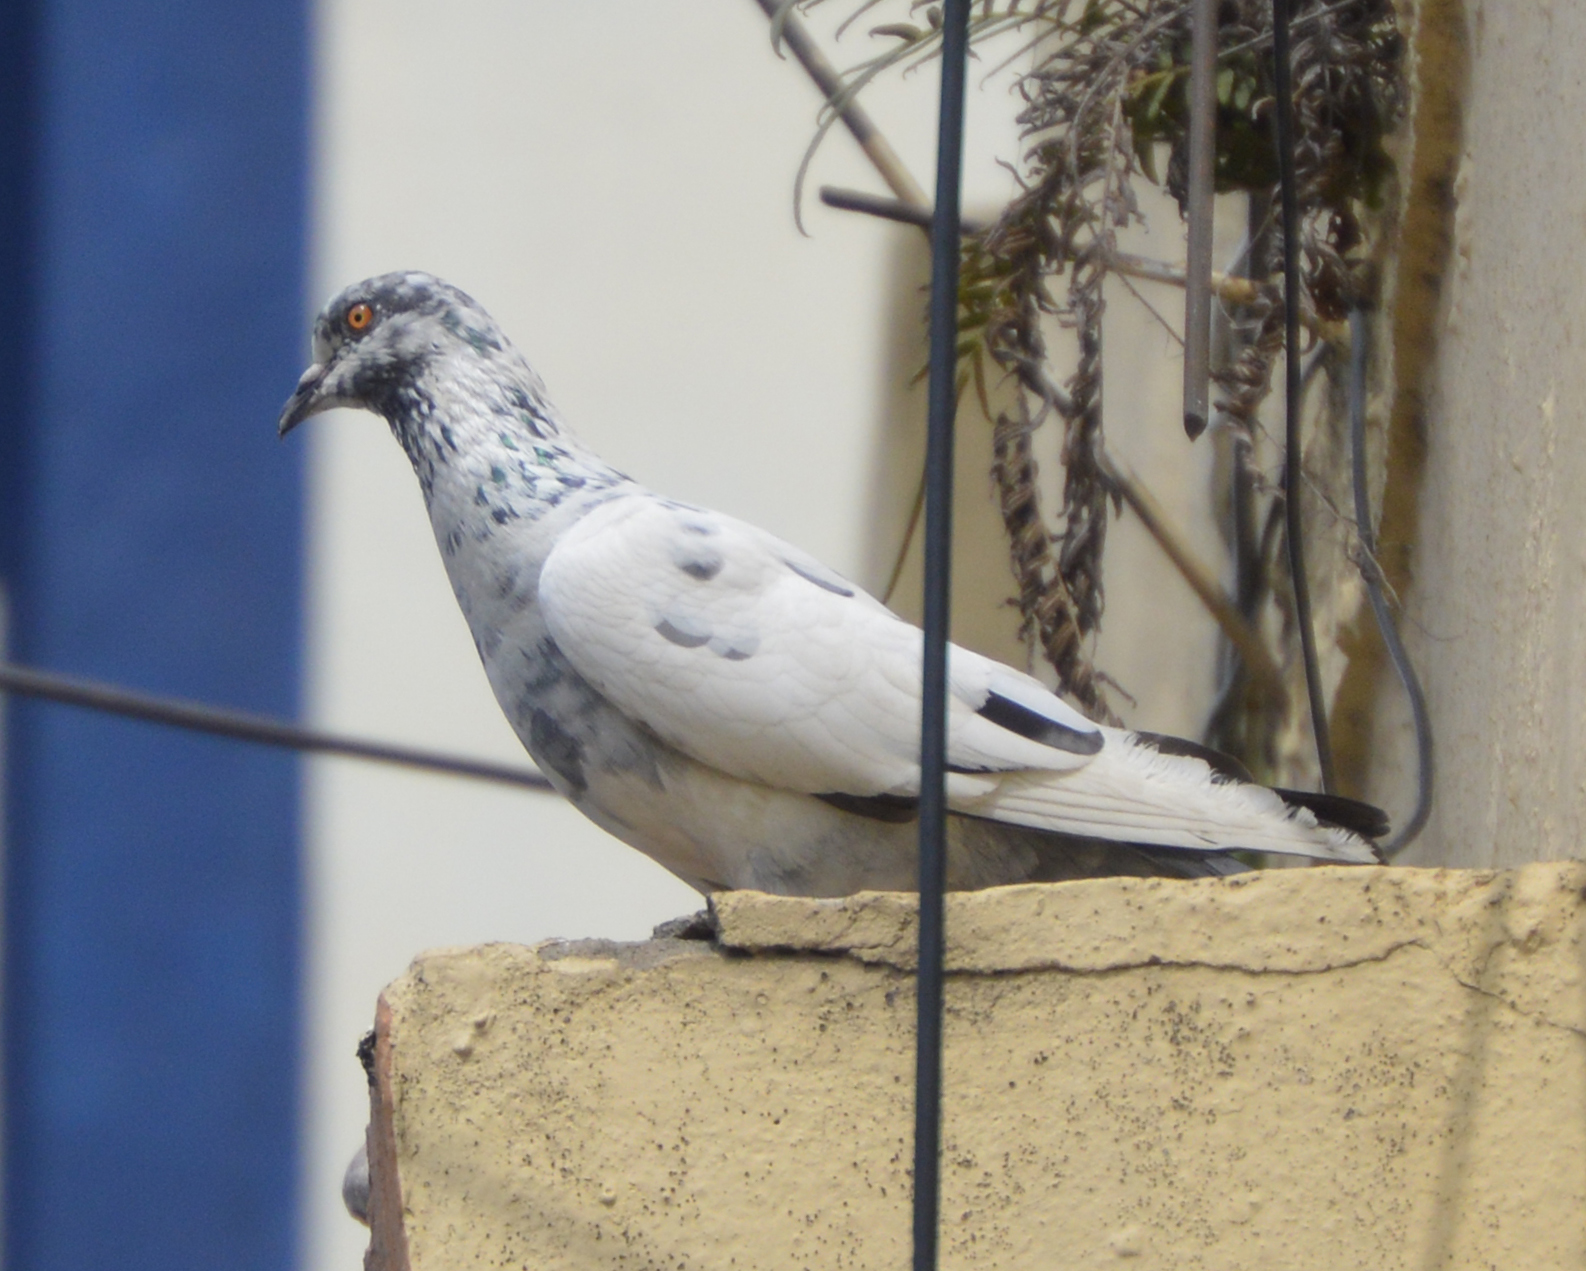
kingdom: Animalia
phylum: Chordata
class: Aves
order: Columbiformes
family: Columbidae
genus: Columba
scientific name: Columba livia
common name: Rock pigeon
